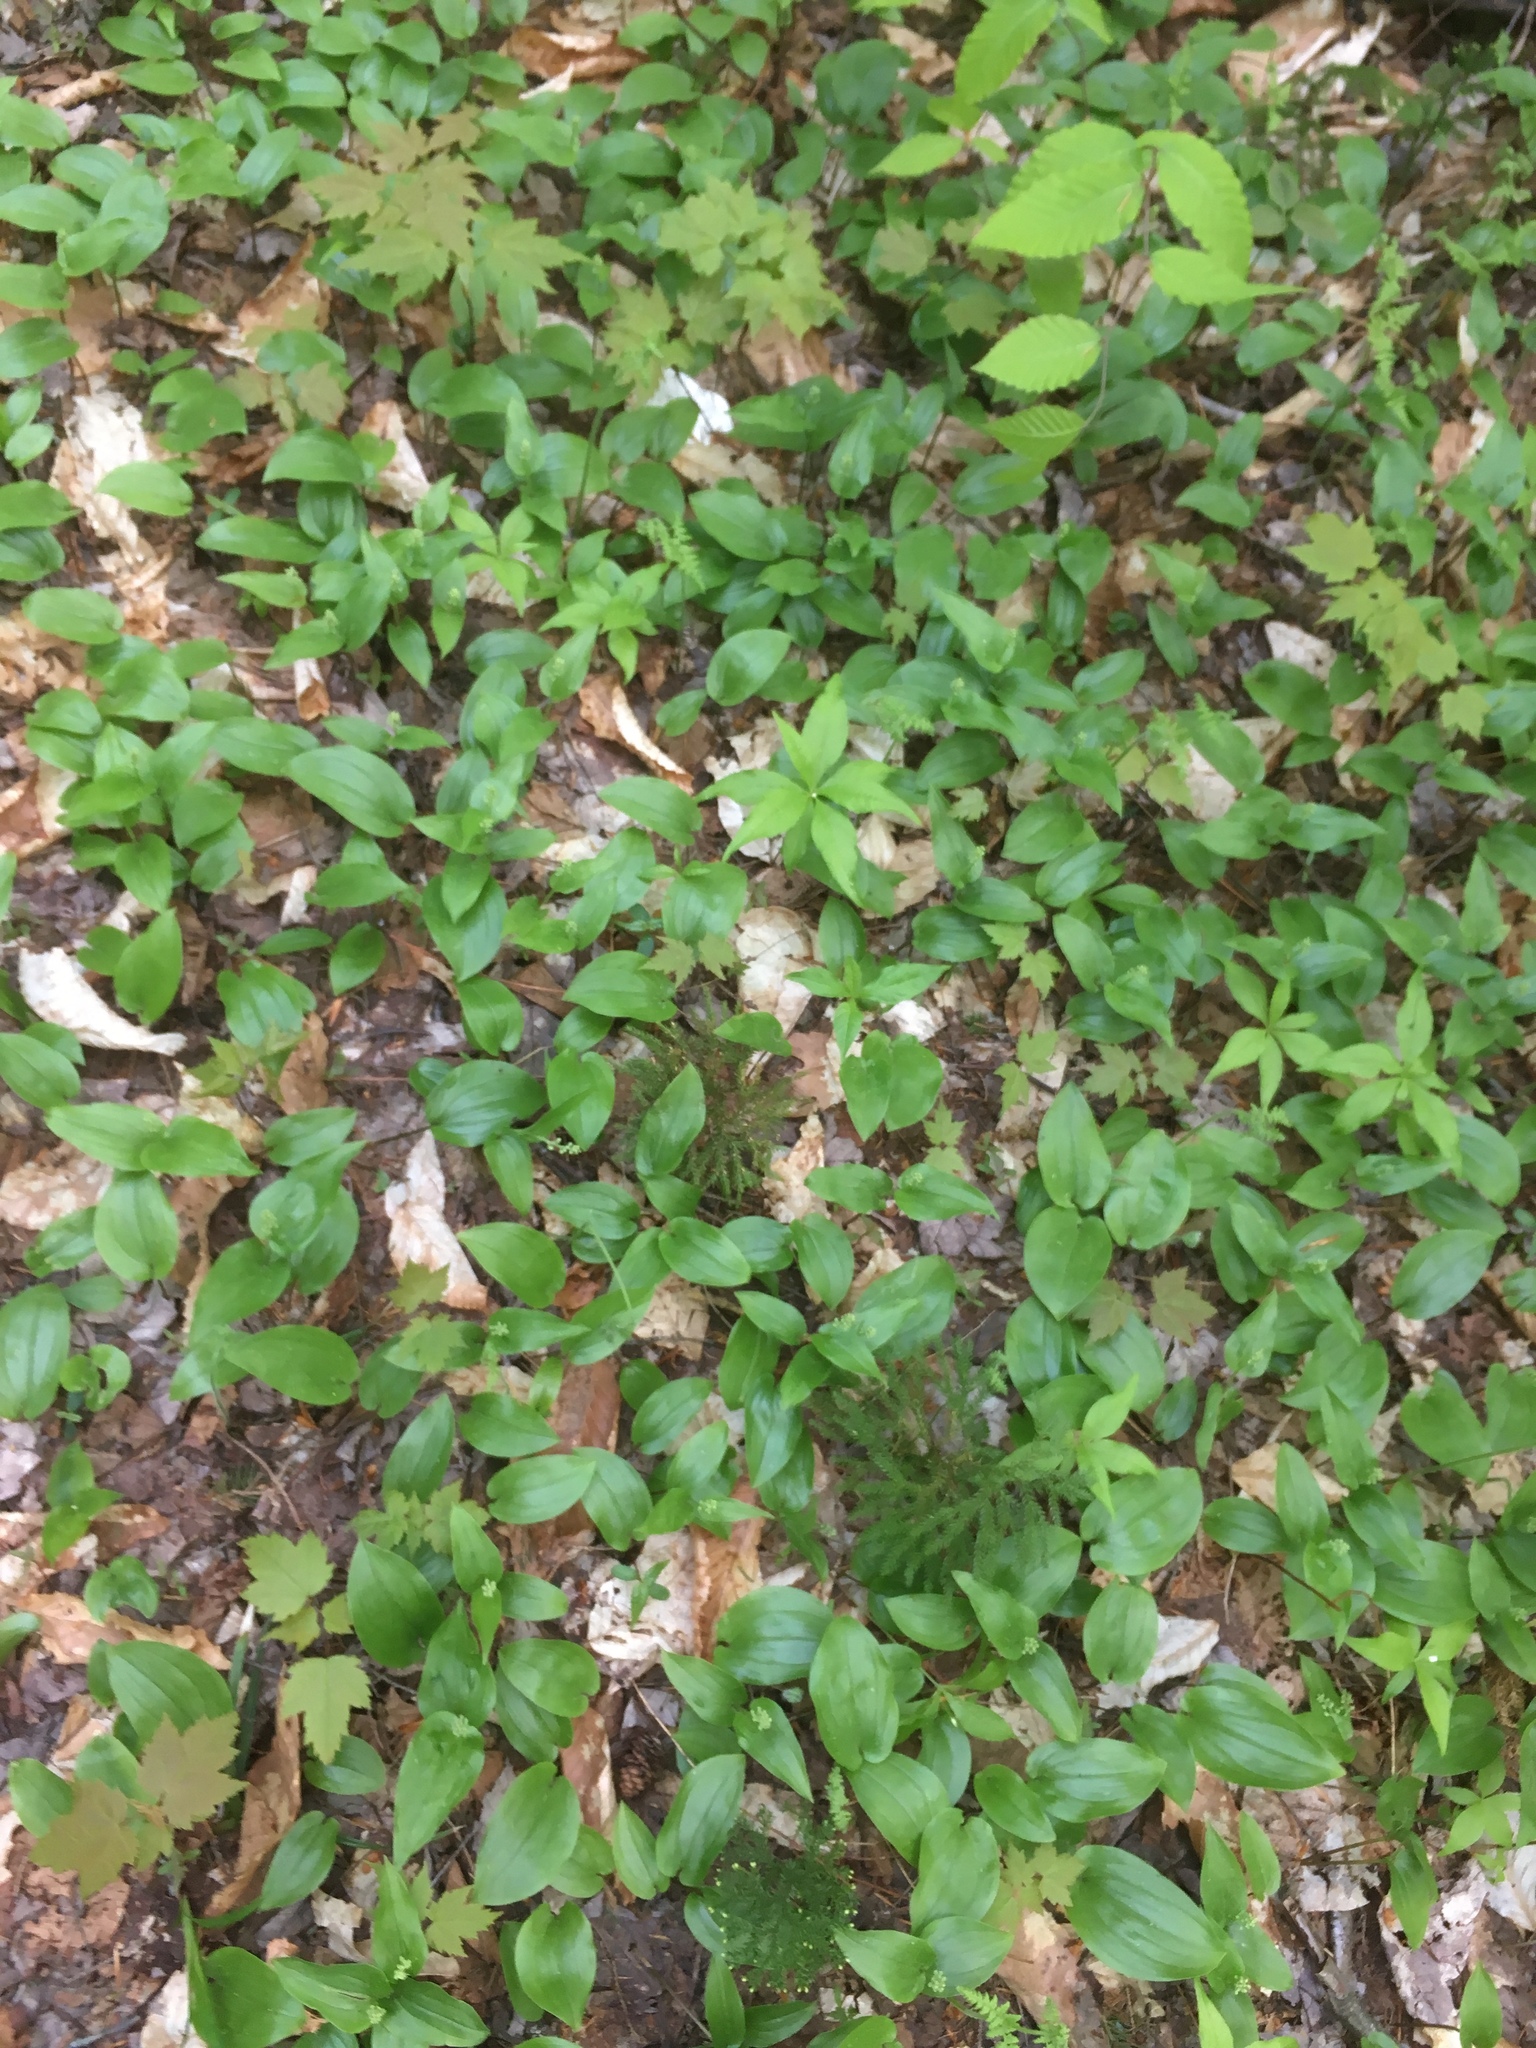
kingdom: Plantae
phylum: Tracheophyta
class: Liliopsida
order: Asparagales
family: Asparagaceae
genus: Maianthemum
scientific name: Maianthemum canadense
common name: False lily-of-the-valley
